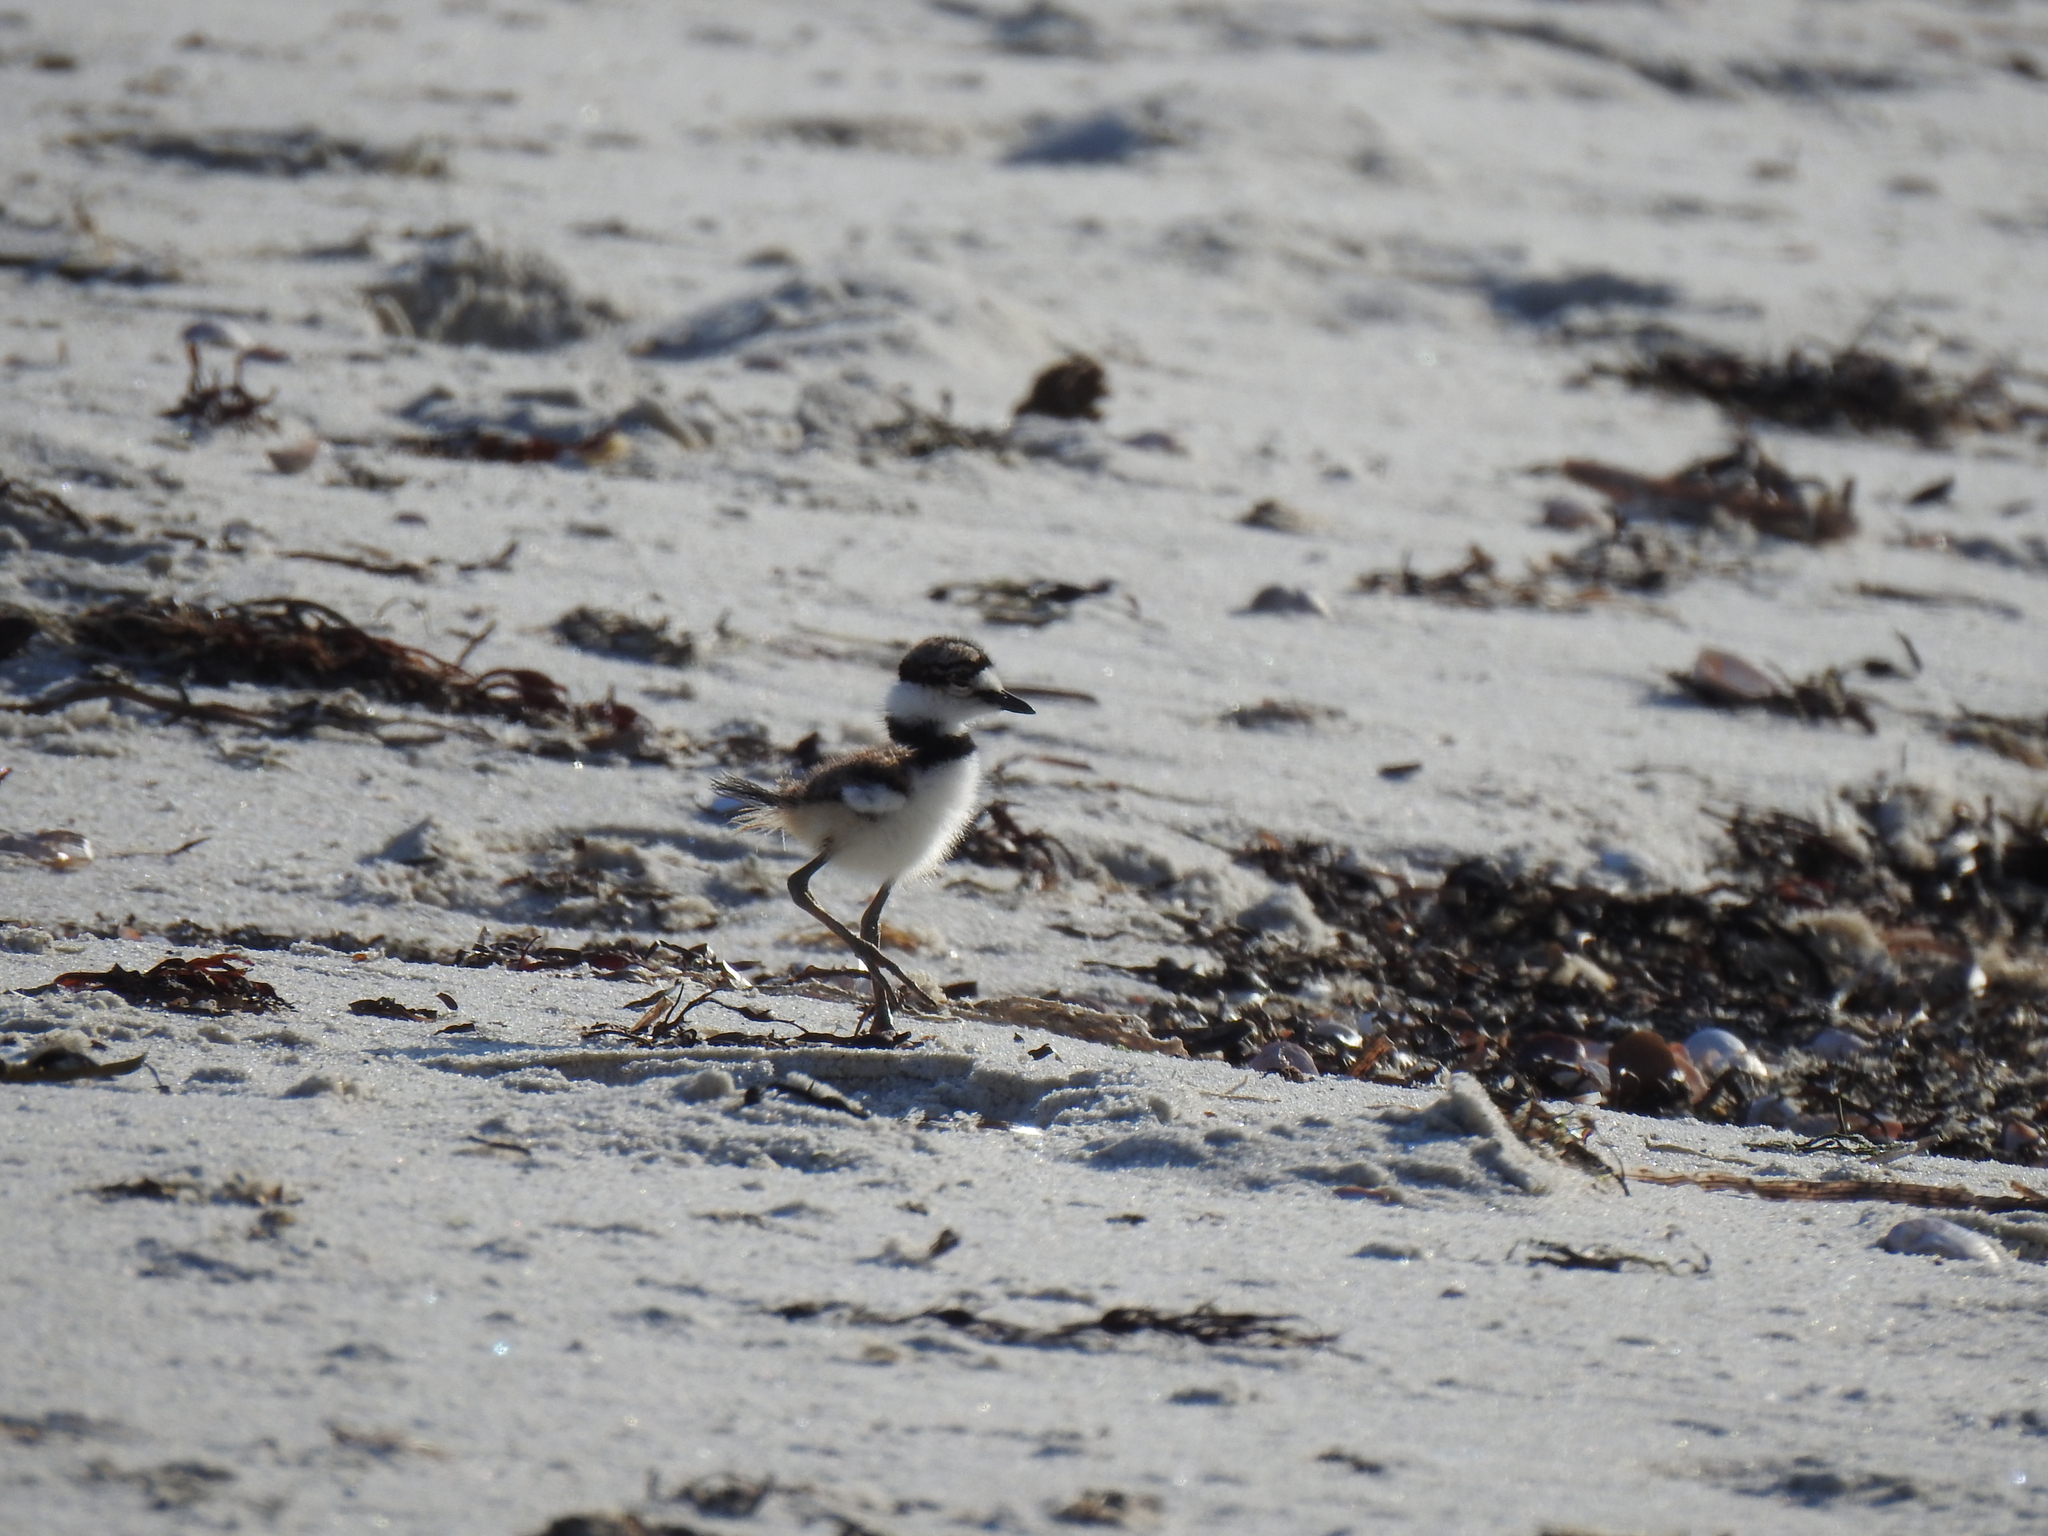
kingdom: Animalia
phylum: Chordata
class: Aves
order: Charadriiformes
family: Charadriidae
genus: Charadrius
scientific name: Charadrius vociferus
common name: Killdeer
